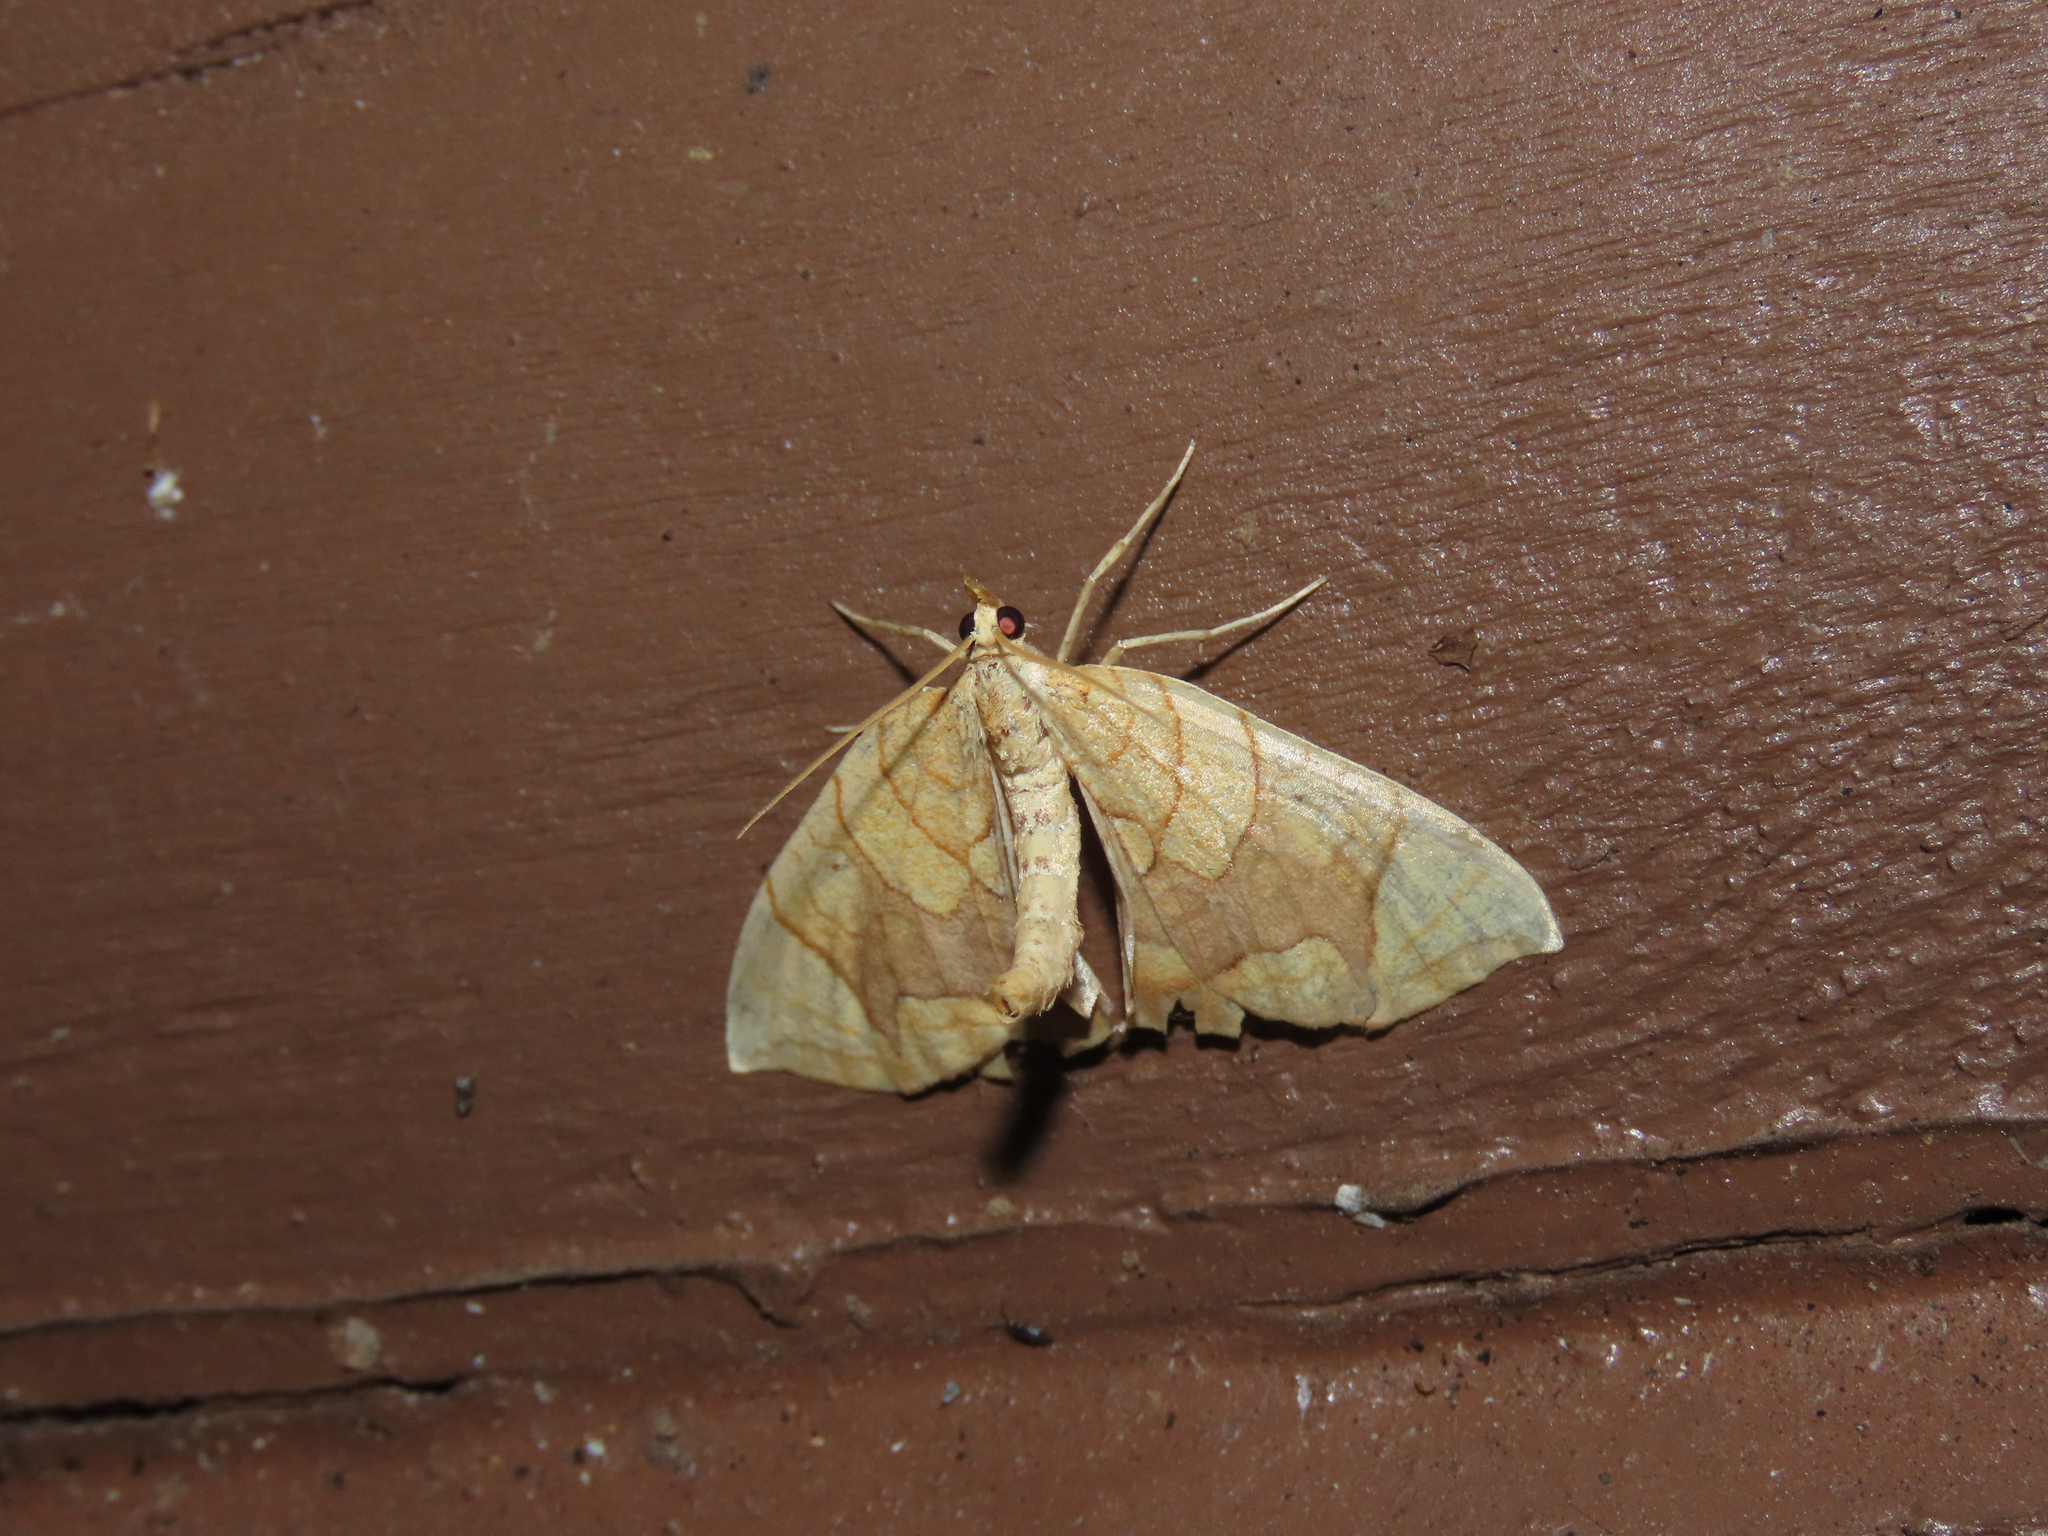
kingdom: Animalia
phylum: Arthropoda
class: Insecta
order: Lepidoptera
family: Geometridae
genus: Eulithis
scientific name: Eulithis diversilineata
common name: Grapevine looper
